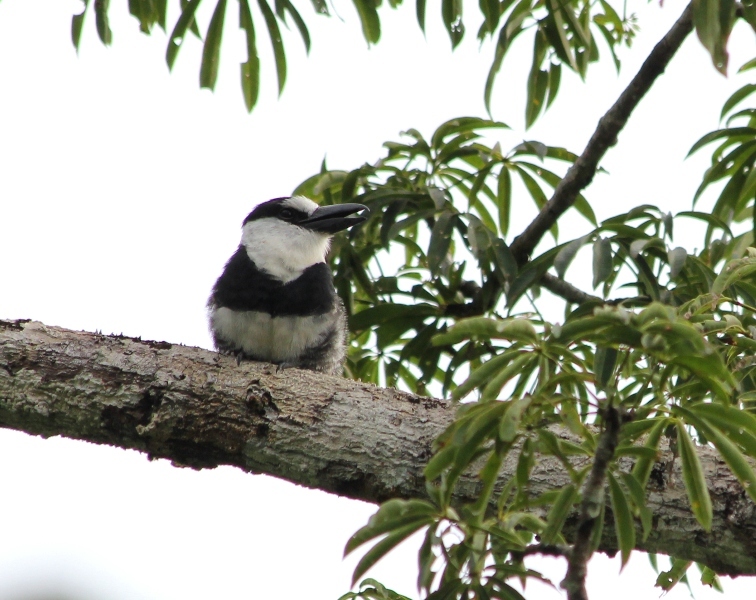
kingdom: Animalia
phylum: Chordata
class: Aves
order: Piciformes
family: Bucconidae
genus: Notharchus
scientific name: Notharchus hyperrhynchus
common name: White-necked puffbird
